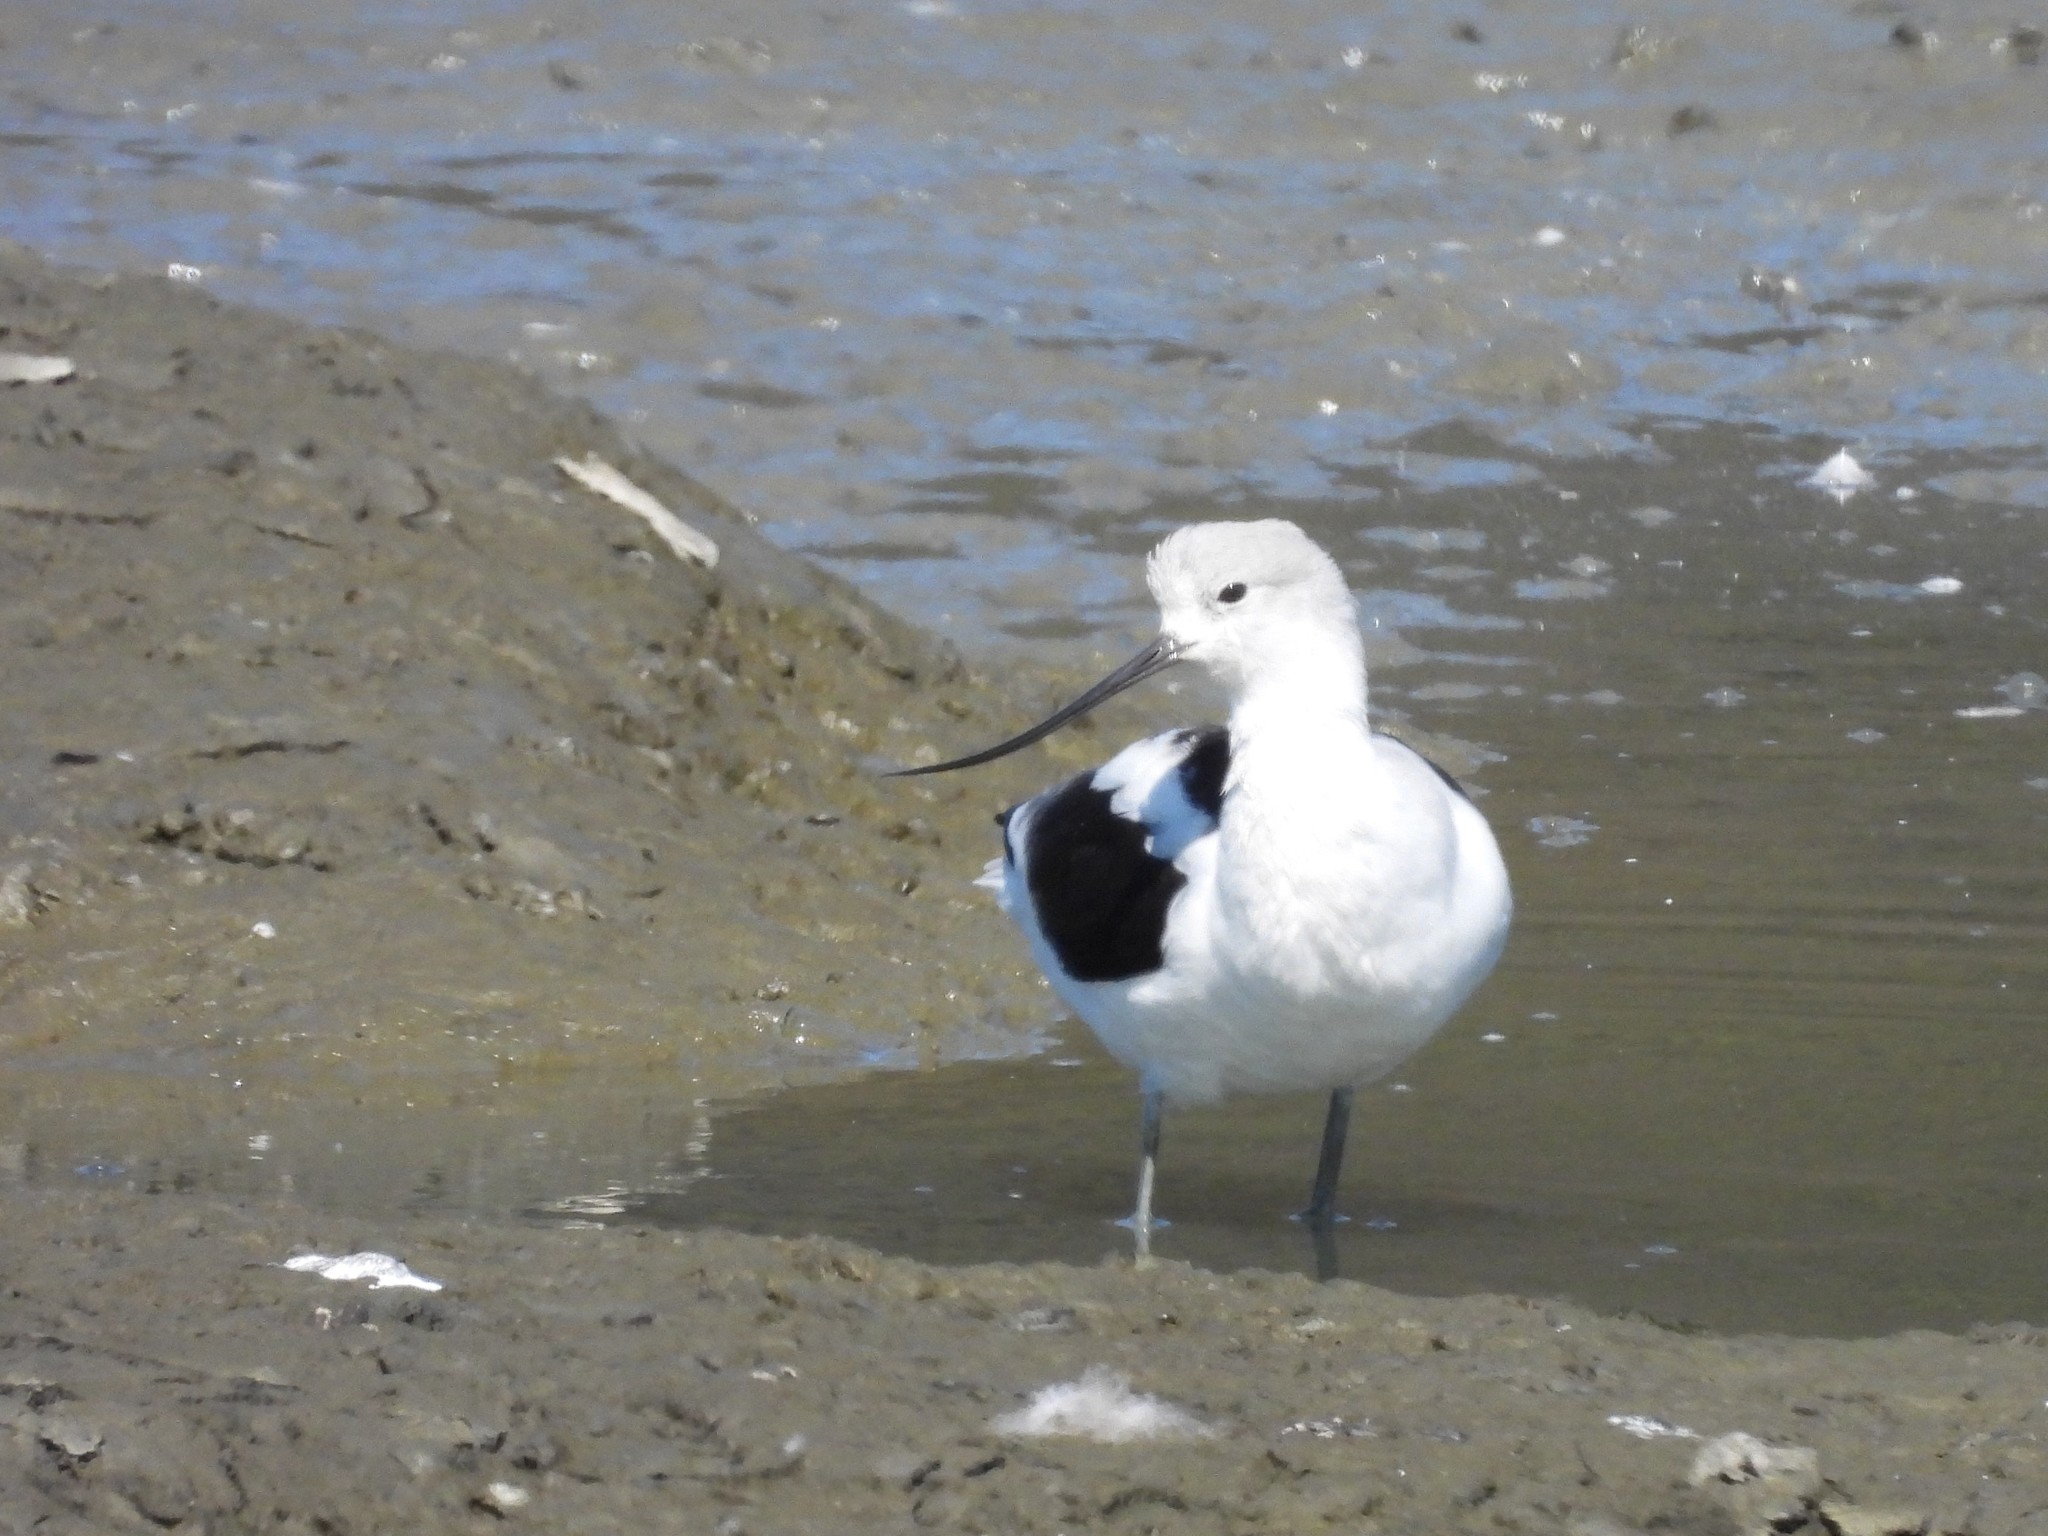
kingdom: Animalia
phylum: Chordata
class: Aves
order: Charadriiformes
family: Recurvirostridae
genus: Recurvirostra
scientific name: Recurvirostra americana
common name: American avocet
